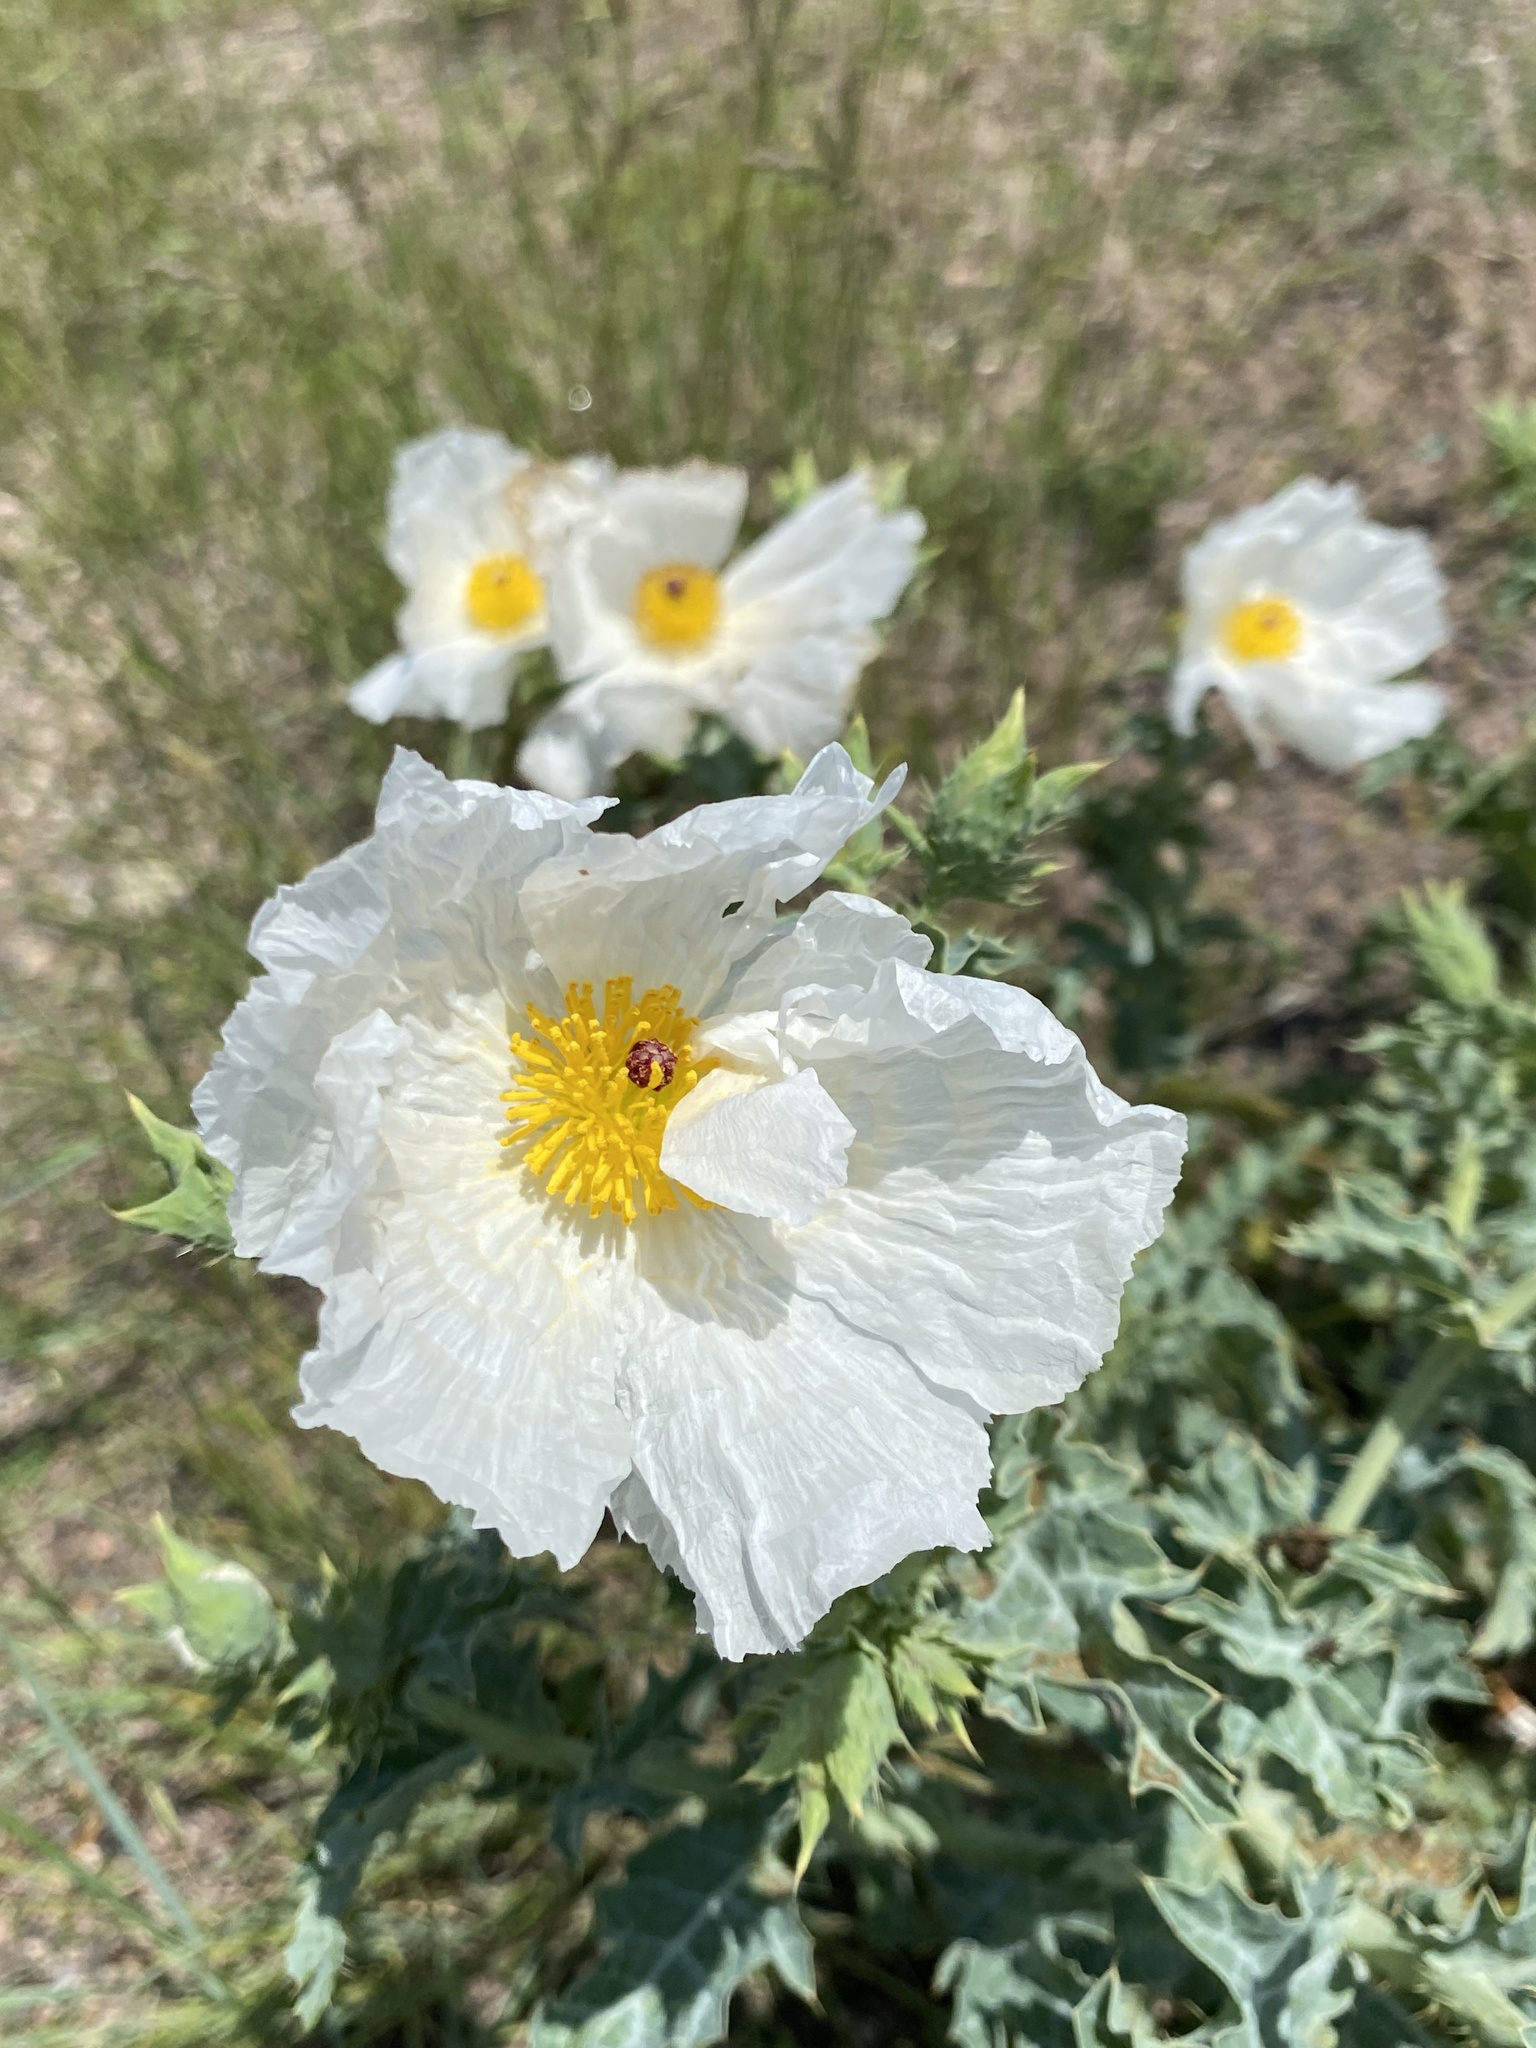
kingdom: Plantae
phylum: Tracheophyta
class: Magnoliopsida
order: Ranunculales
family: Papaveraceae
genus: Argemone
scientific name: Argemone polyanthemos
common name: Plains prickly-poppy
